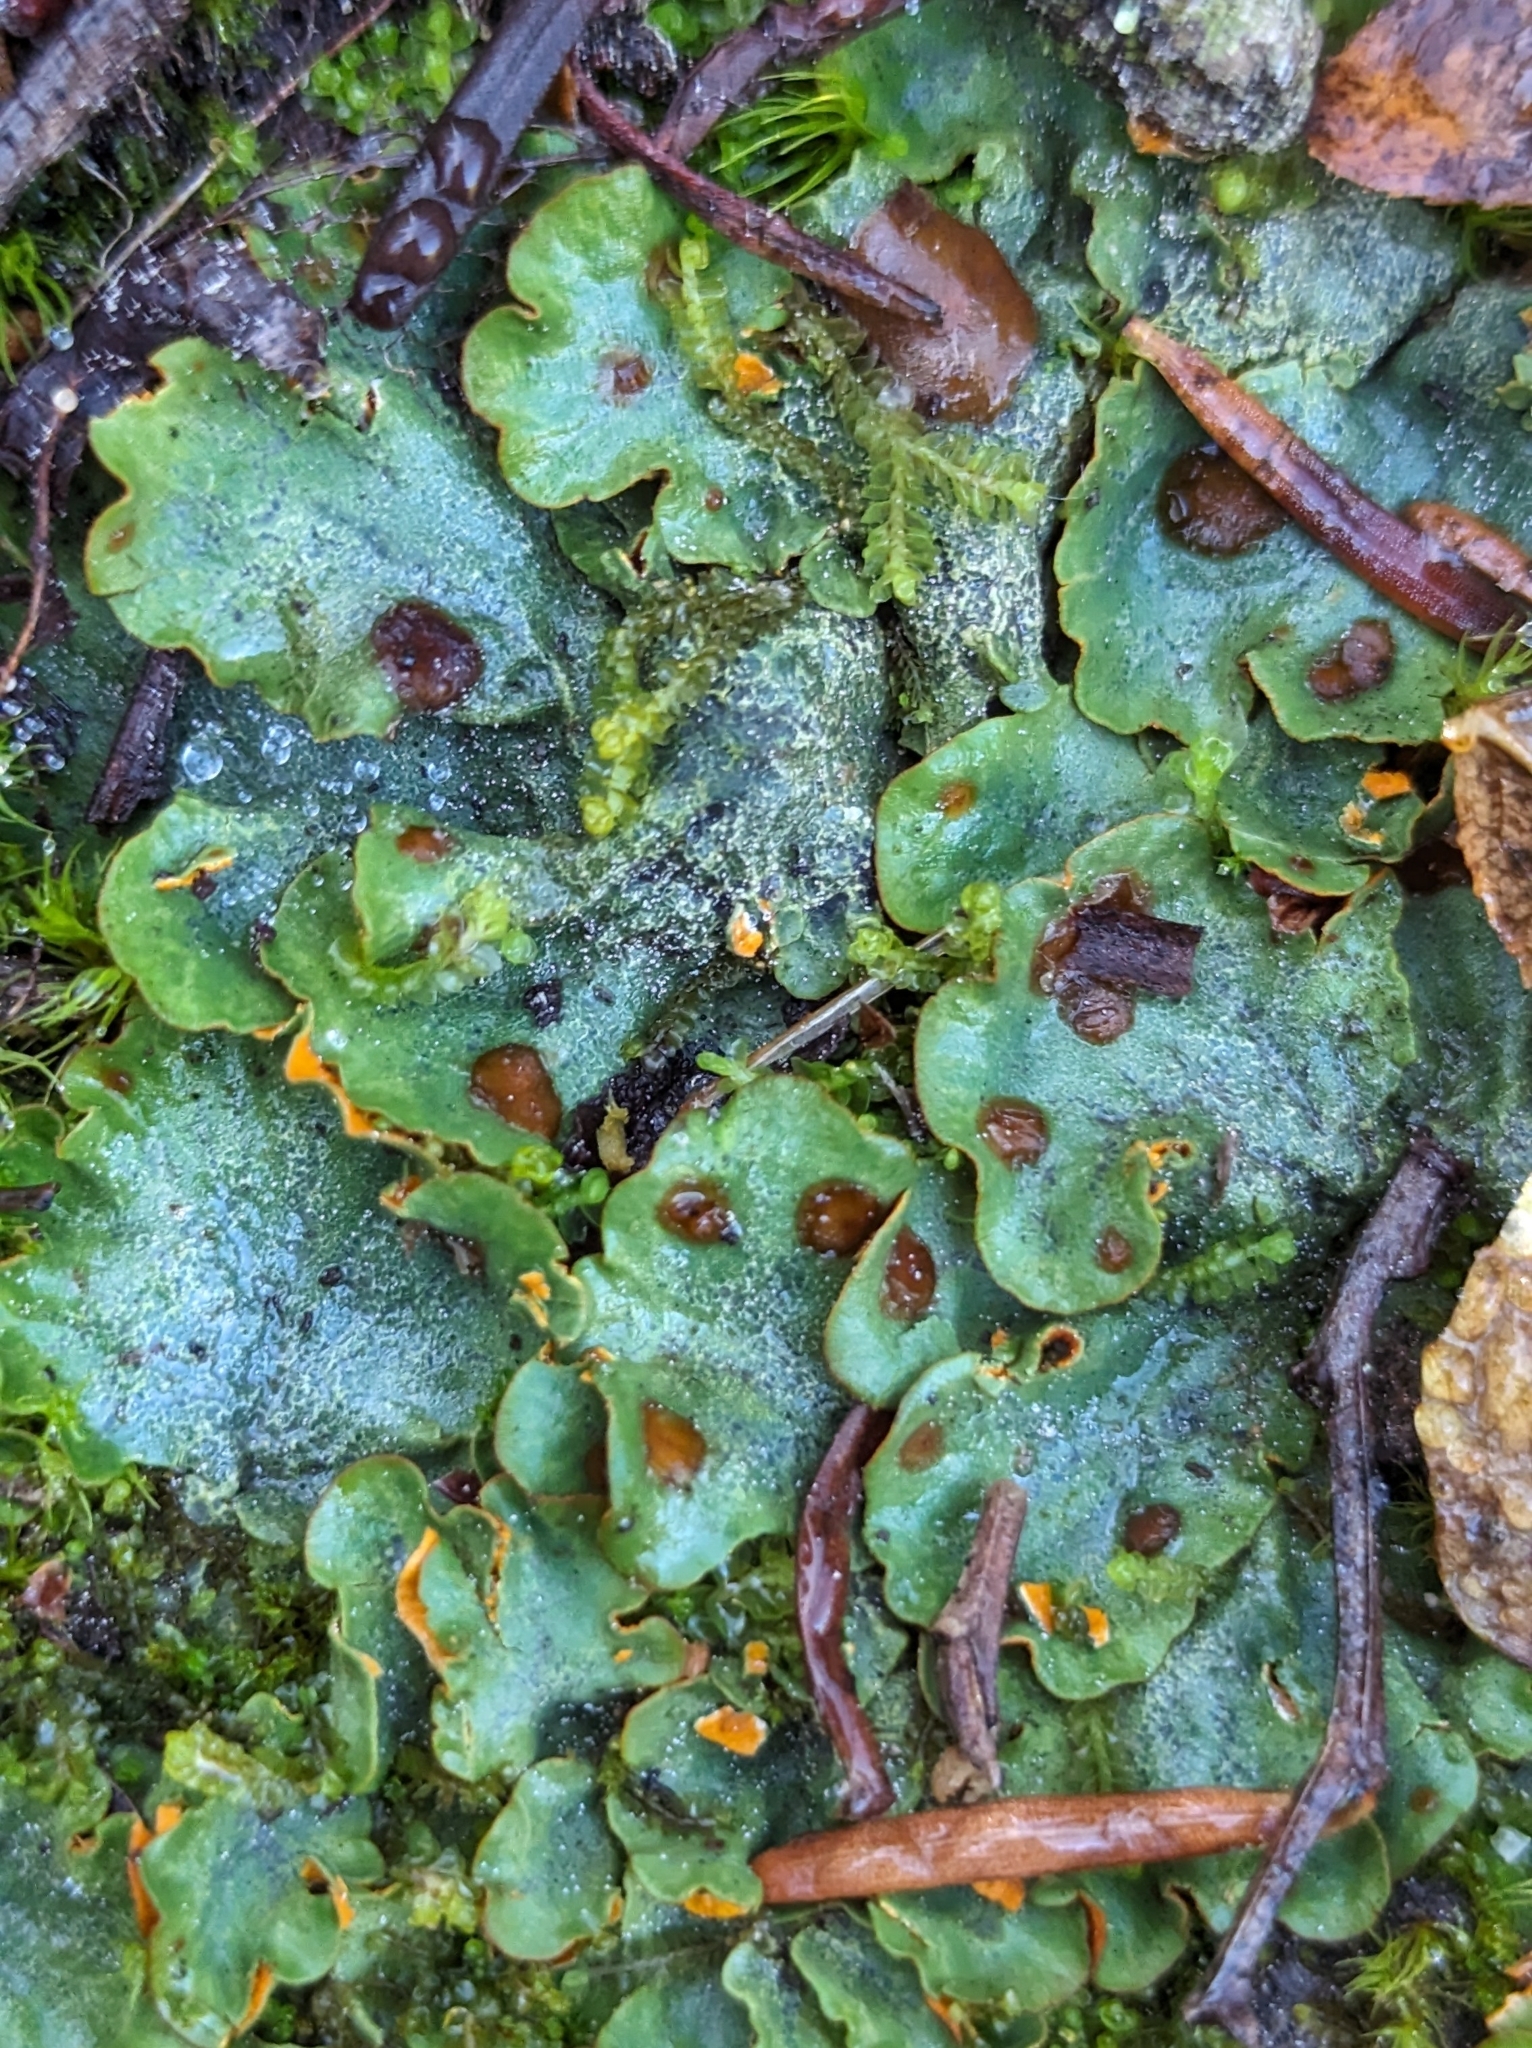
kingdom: Fungi
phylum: Ascomycota
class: Lecanoromycetes
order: Peltigerales
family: Peltigeraceae
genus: Solorina
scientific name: Solorina crocea
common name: Mountain saffron
